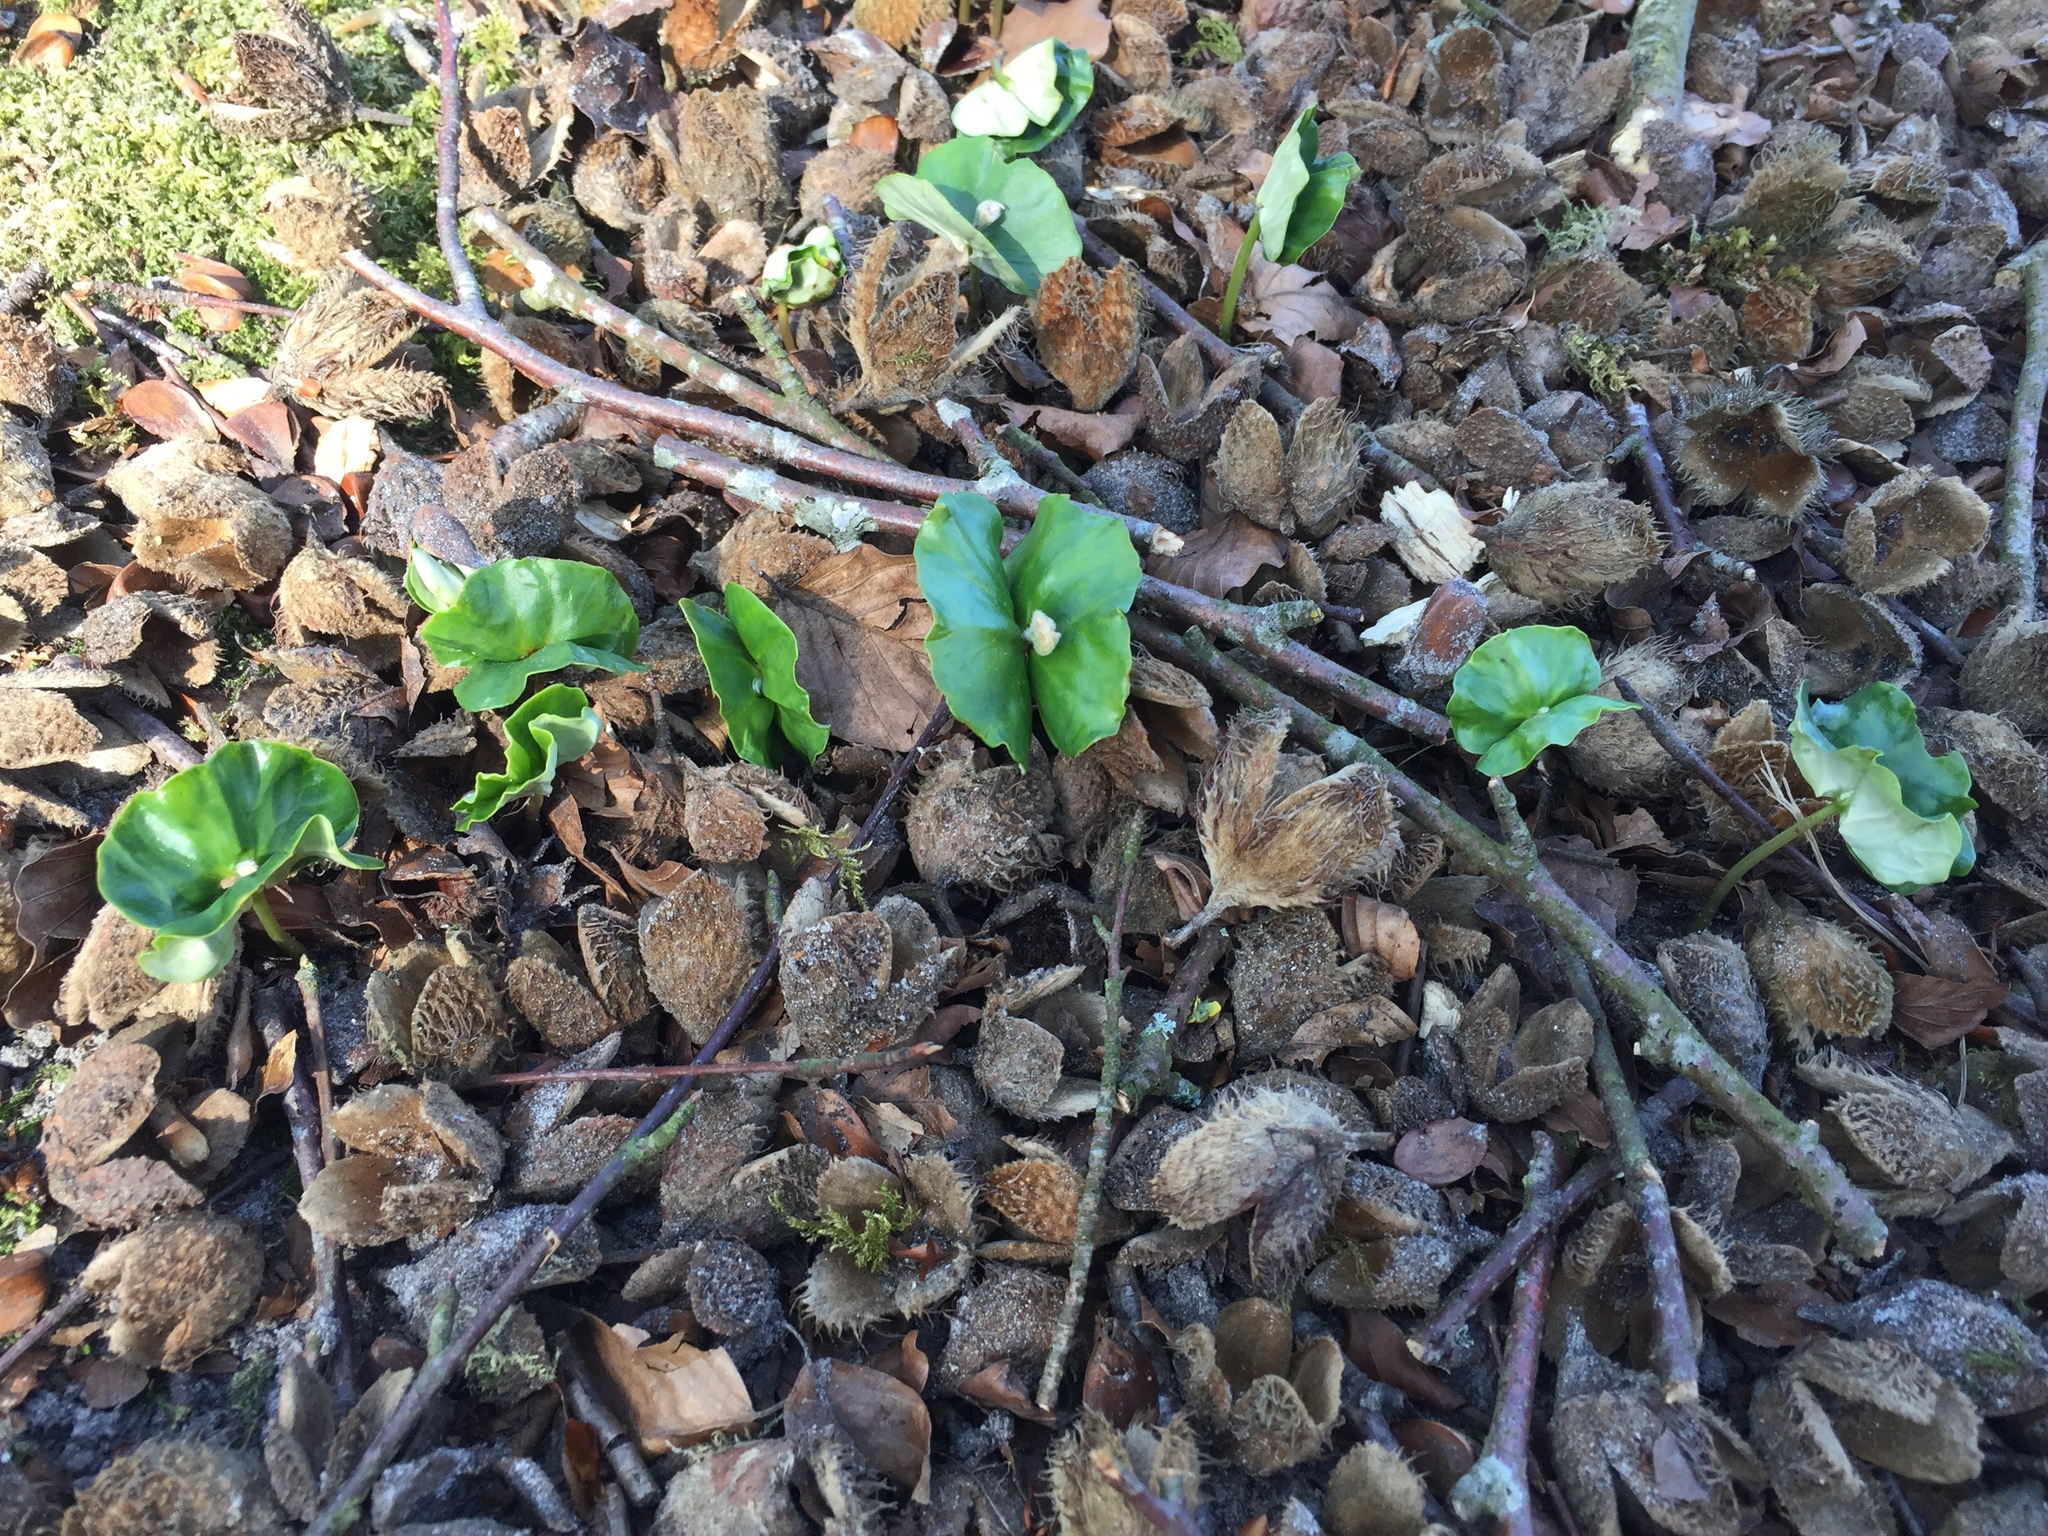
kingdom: Plantae
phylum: Tracheophyta
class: Magnoliopsida
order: Fagales
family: Fagaceae
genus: Fagus
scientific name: Fagus sylvatica
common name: Beech
